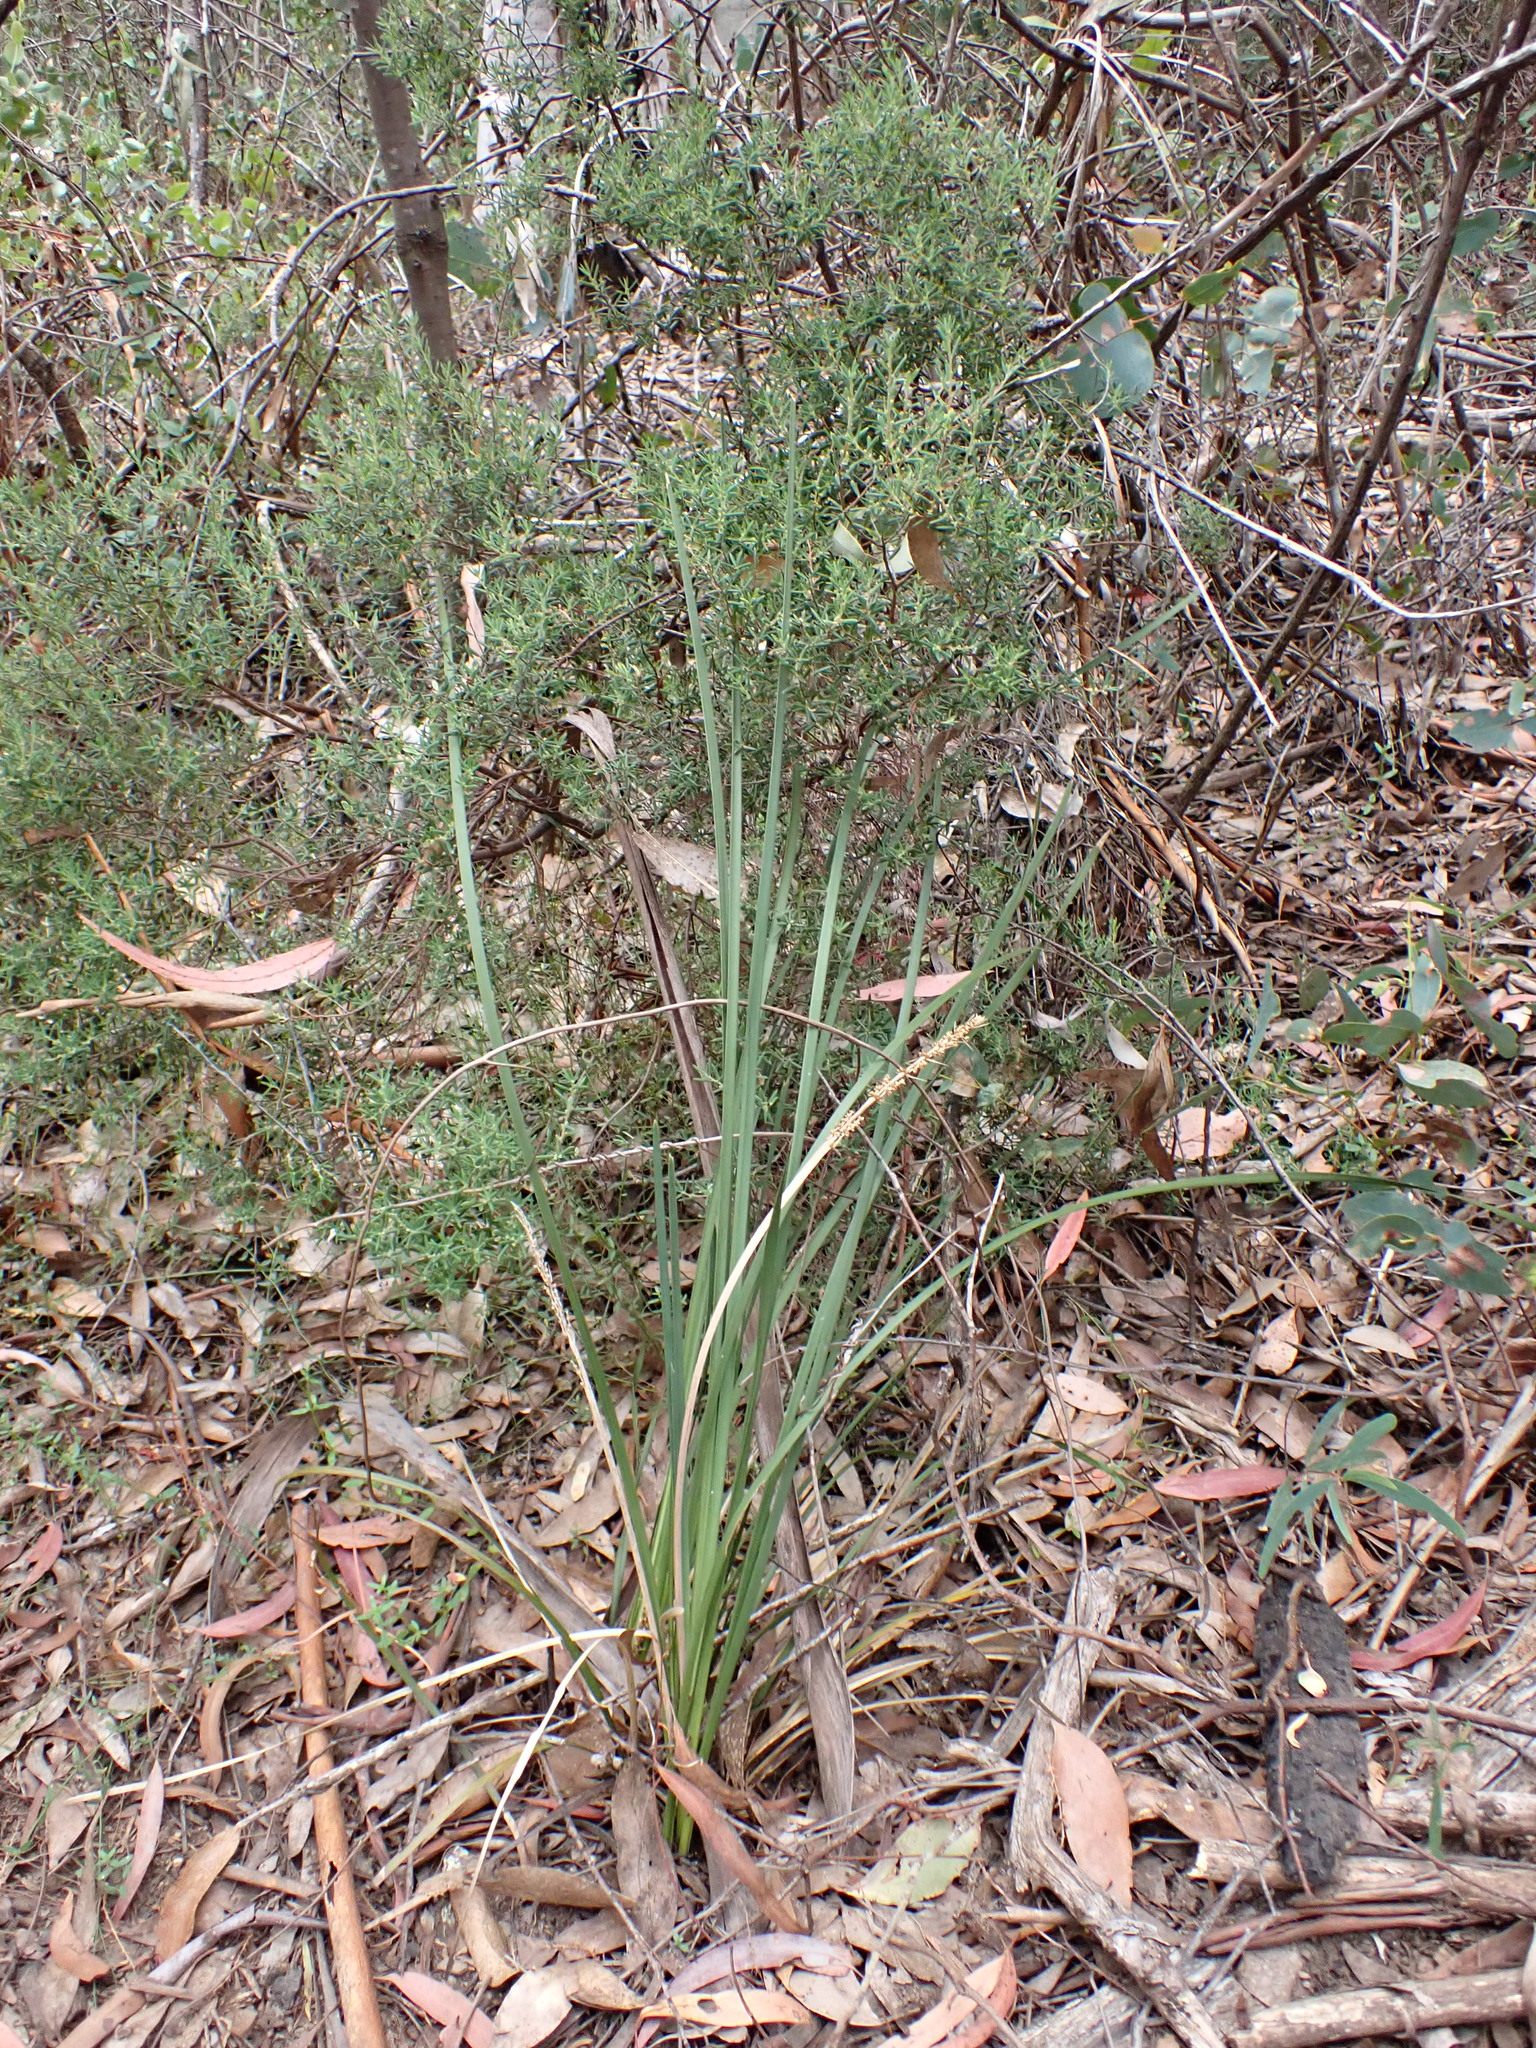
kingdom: Plantae
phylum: Tracheophyta
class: Liliopsida
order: Asparagales
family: Asparagaceae
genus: Lomandra
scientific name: Lomandra longifolia
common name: Longleaf mat-rush
